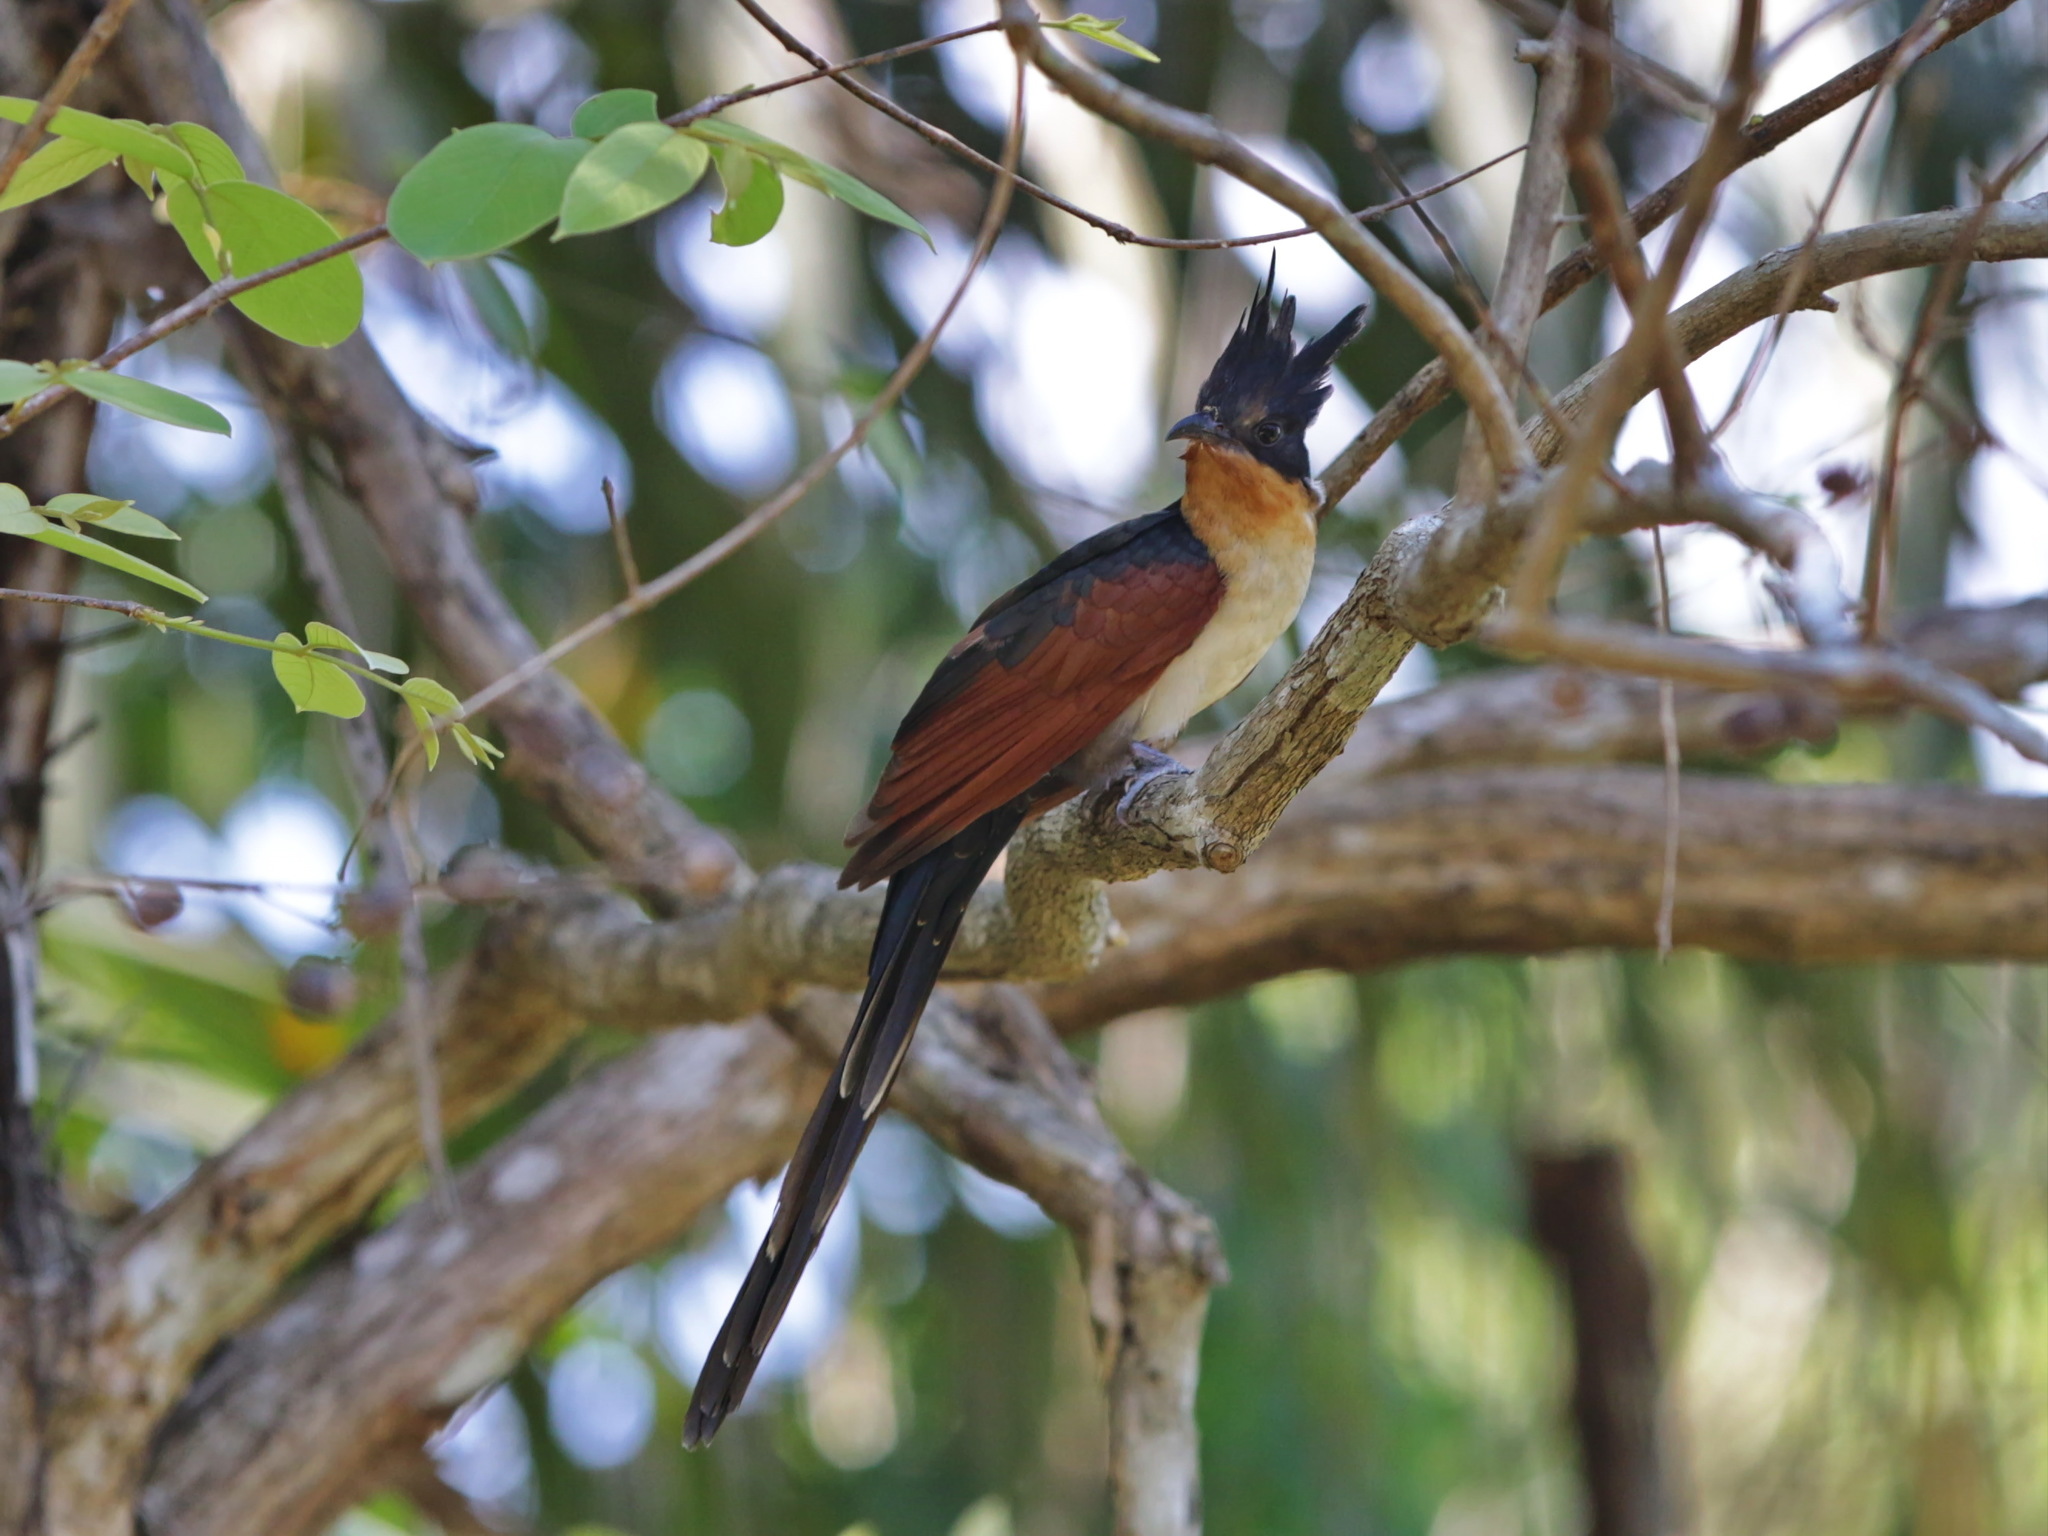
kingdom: Animalia
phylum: Chordata
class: Aves
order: Cuculiformes
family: Cuculidae
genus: Clamator
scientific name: Clamator coromandus
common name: Chestnut-winged cuckoo
